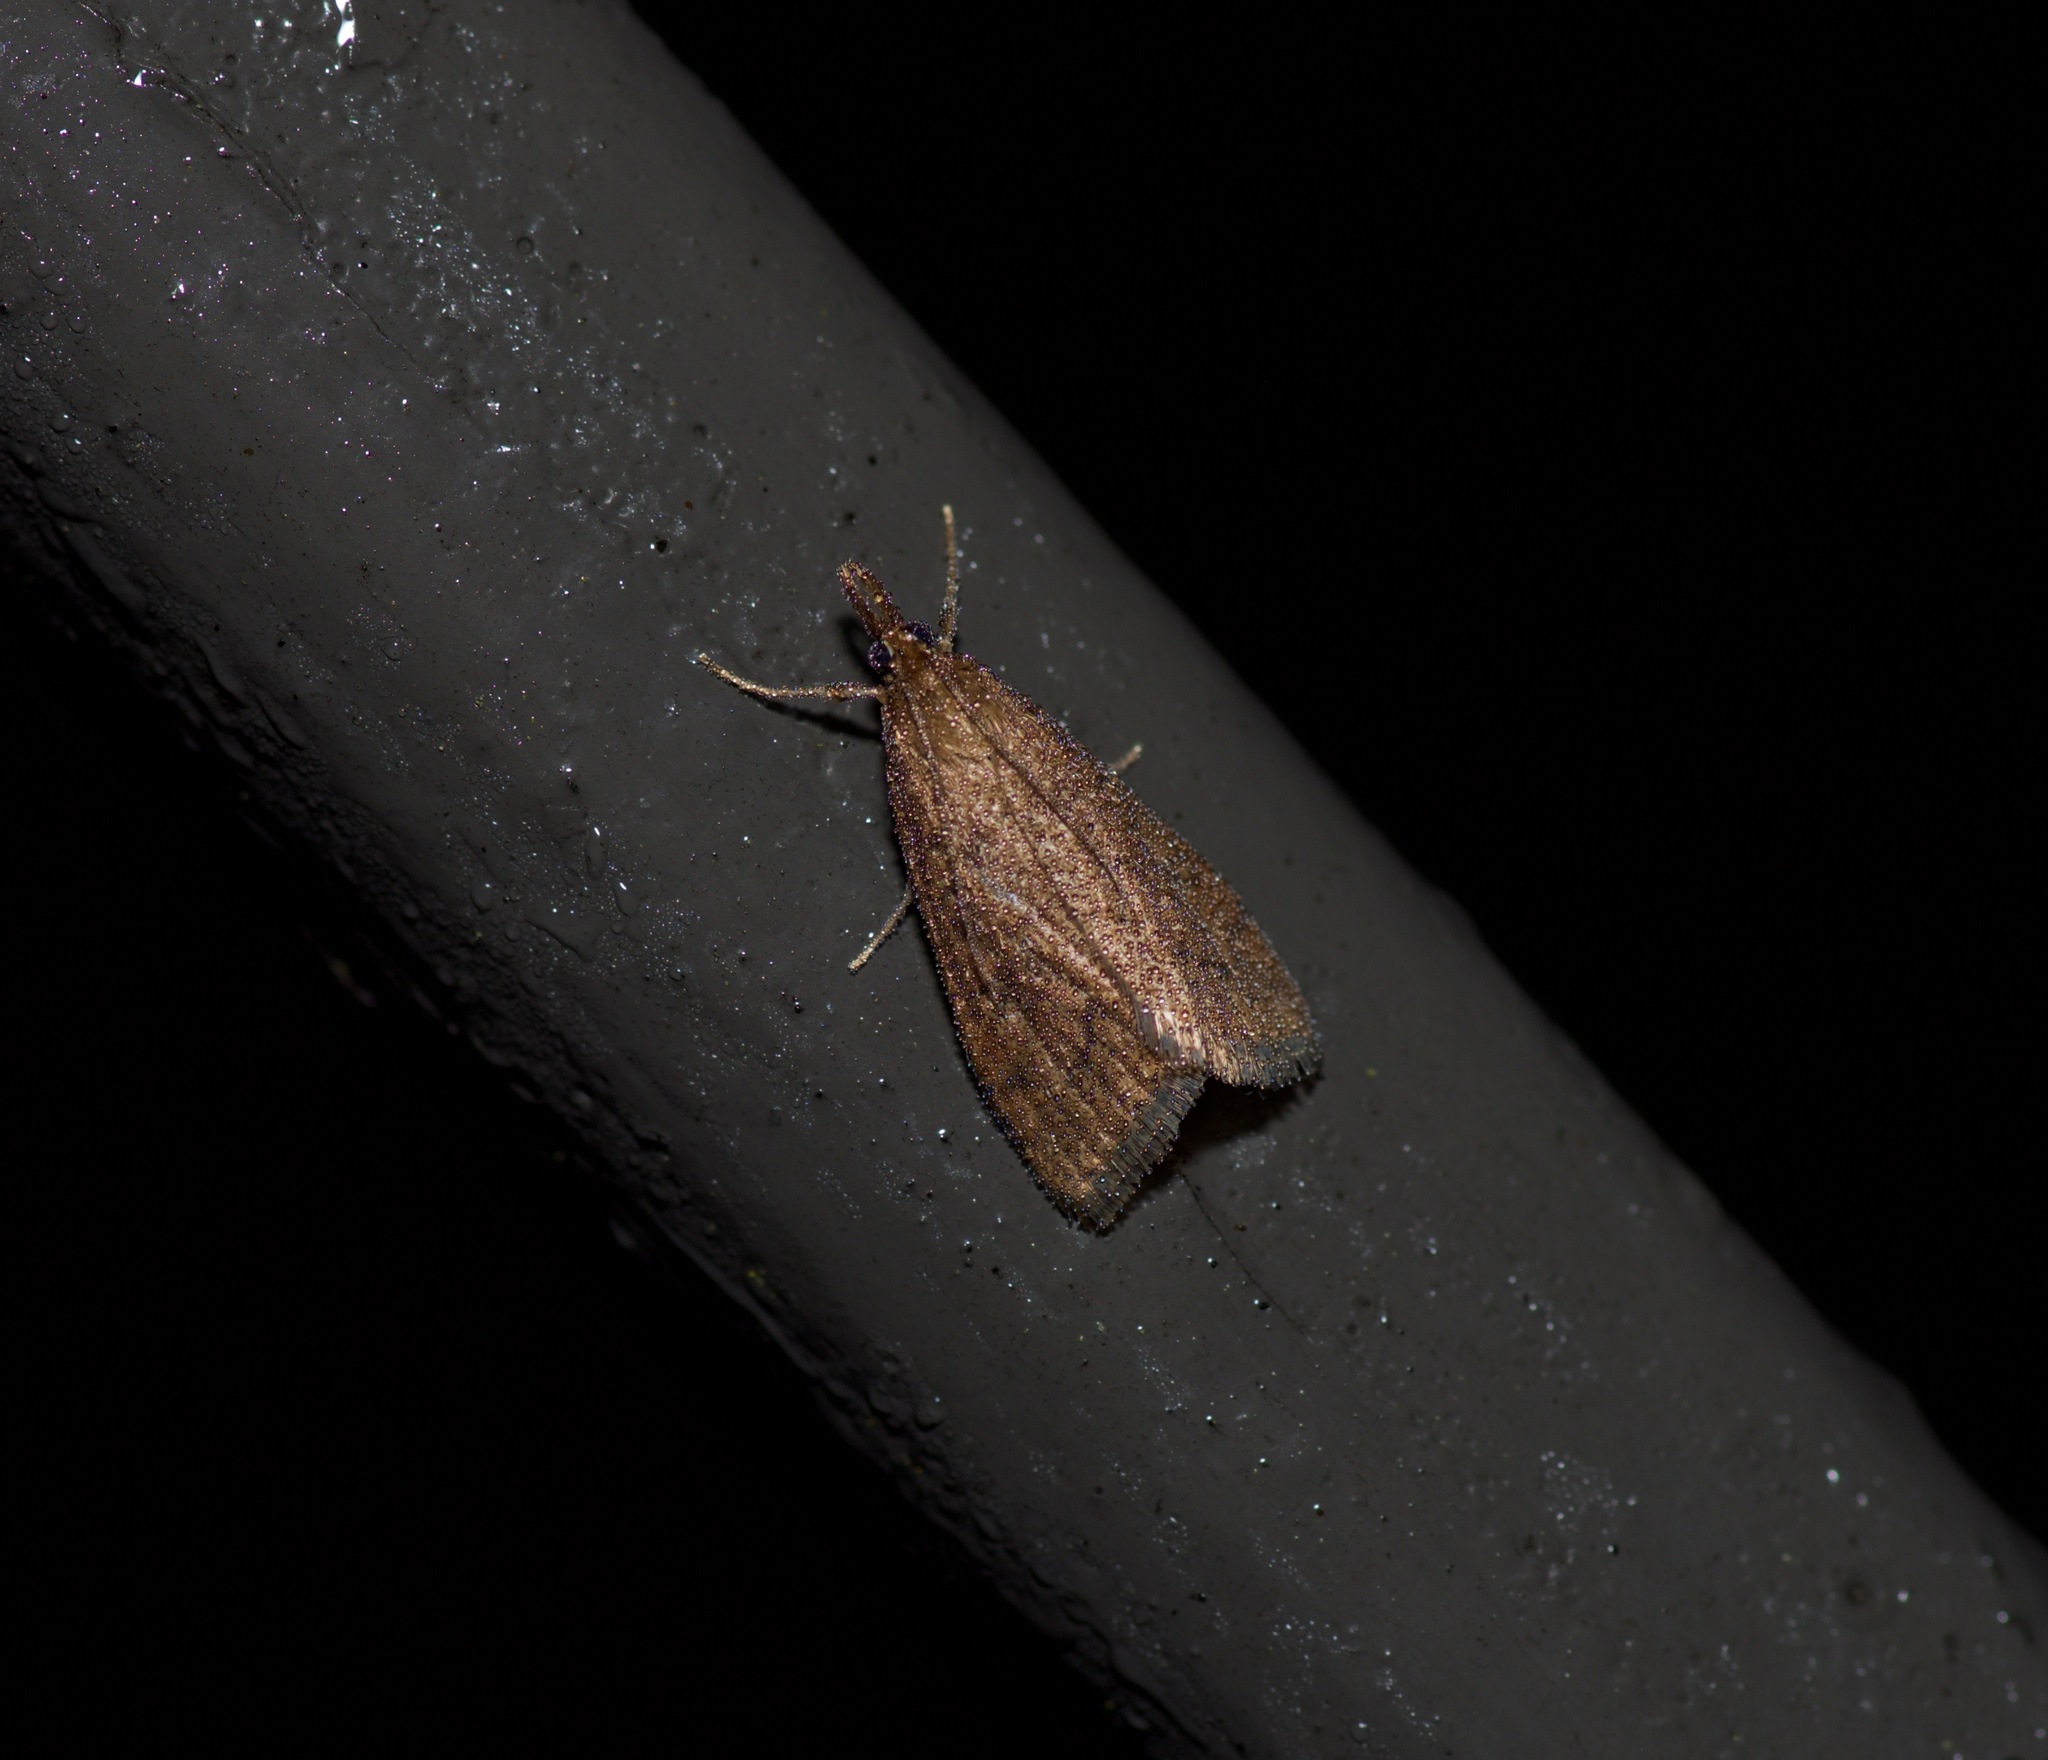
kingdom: Animalia
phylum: Arthropoda
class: Insecta
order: Lepidoptera
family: Crambidae
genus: Udea
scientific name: Udea rubigalis
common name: Celery leaftier moth
